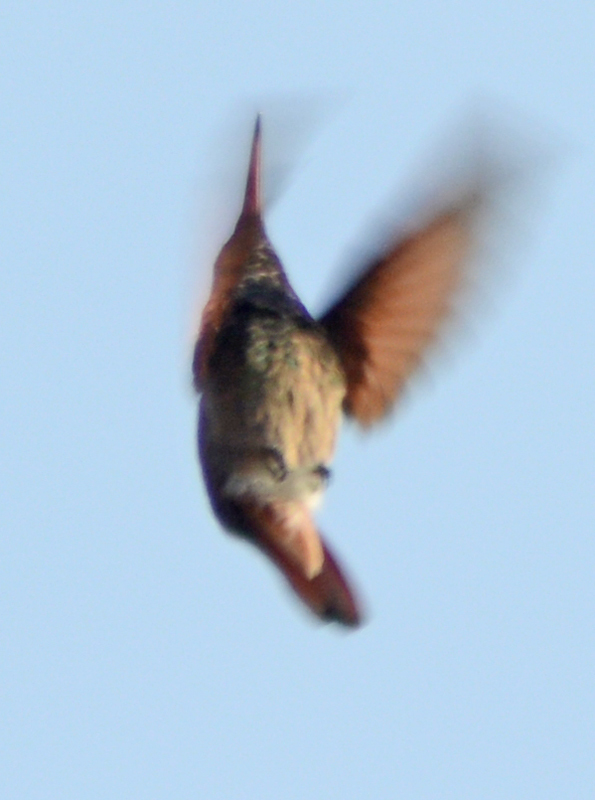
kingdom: Animalia
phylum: Chordata
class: Aves
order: Apodiformes
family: Trochilidae
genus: Saucerottia
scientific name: Saucerottia beryllina
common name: Berylline hummingbird
